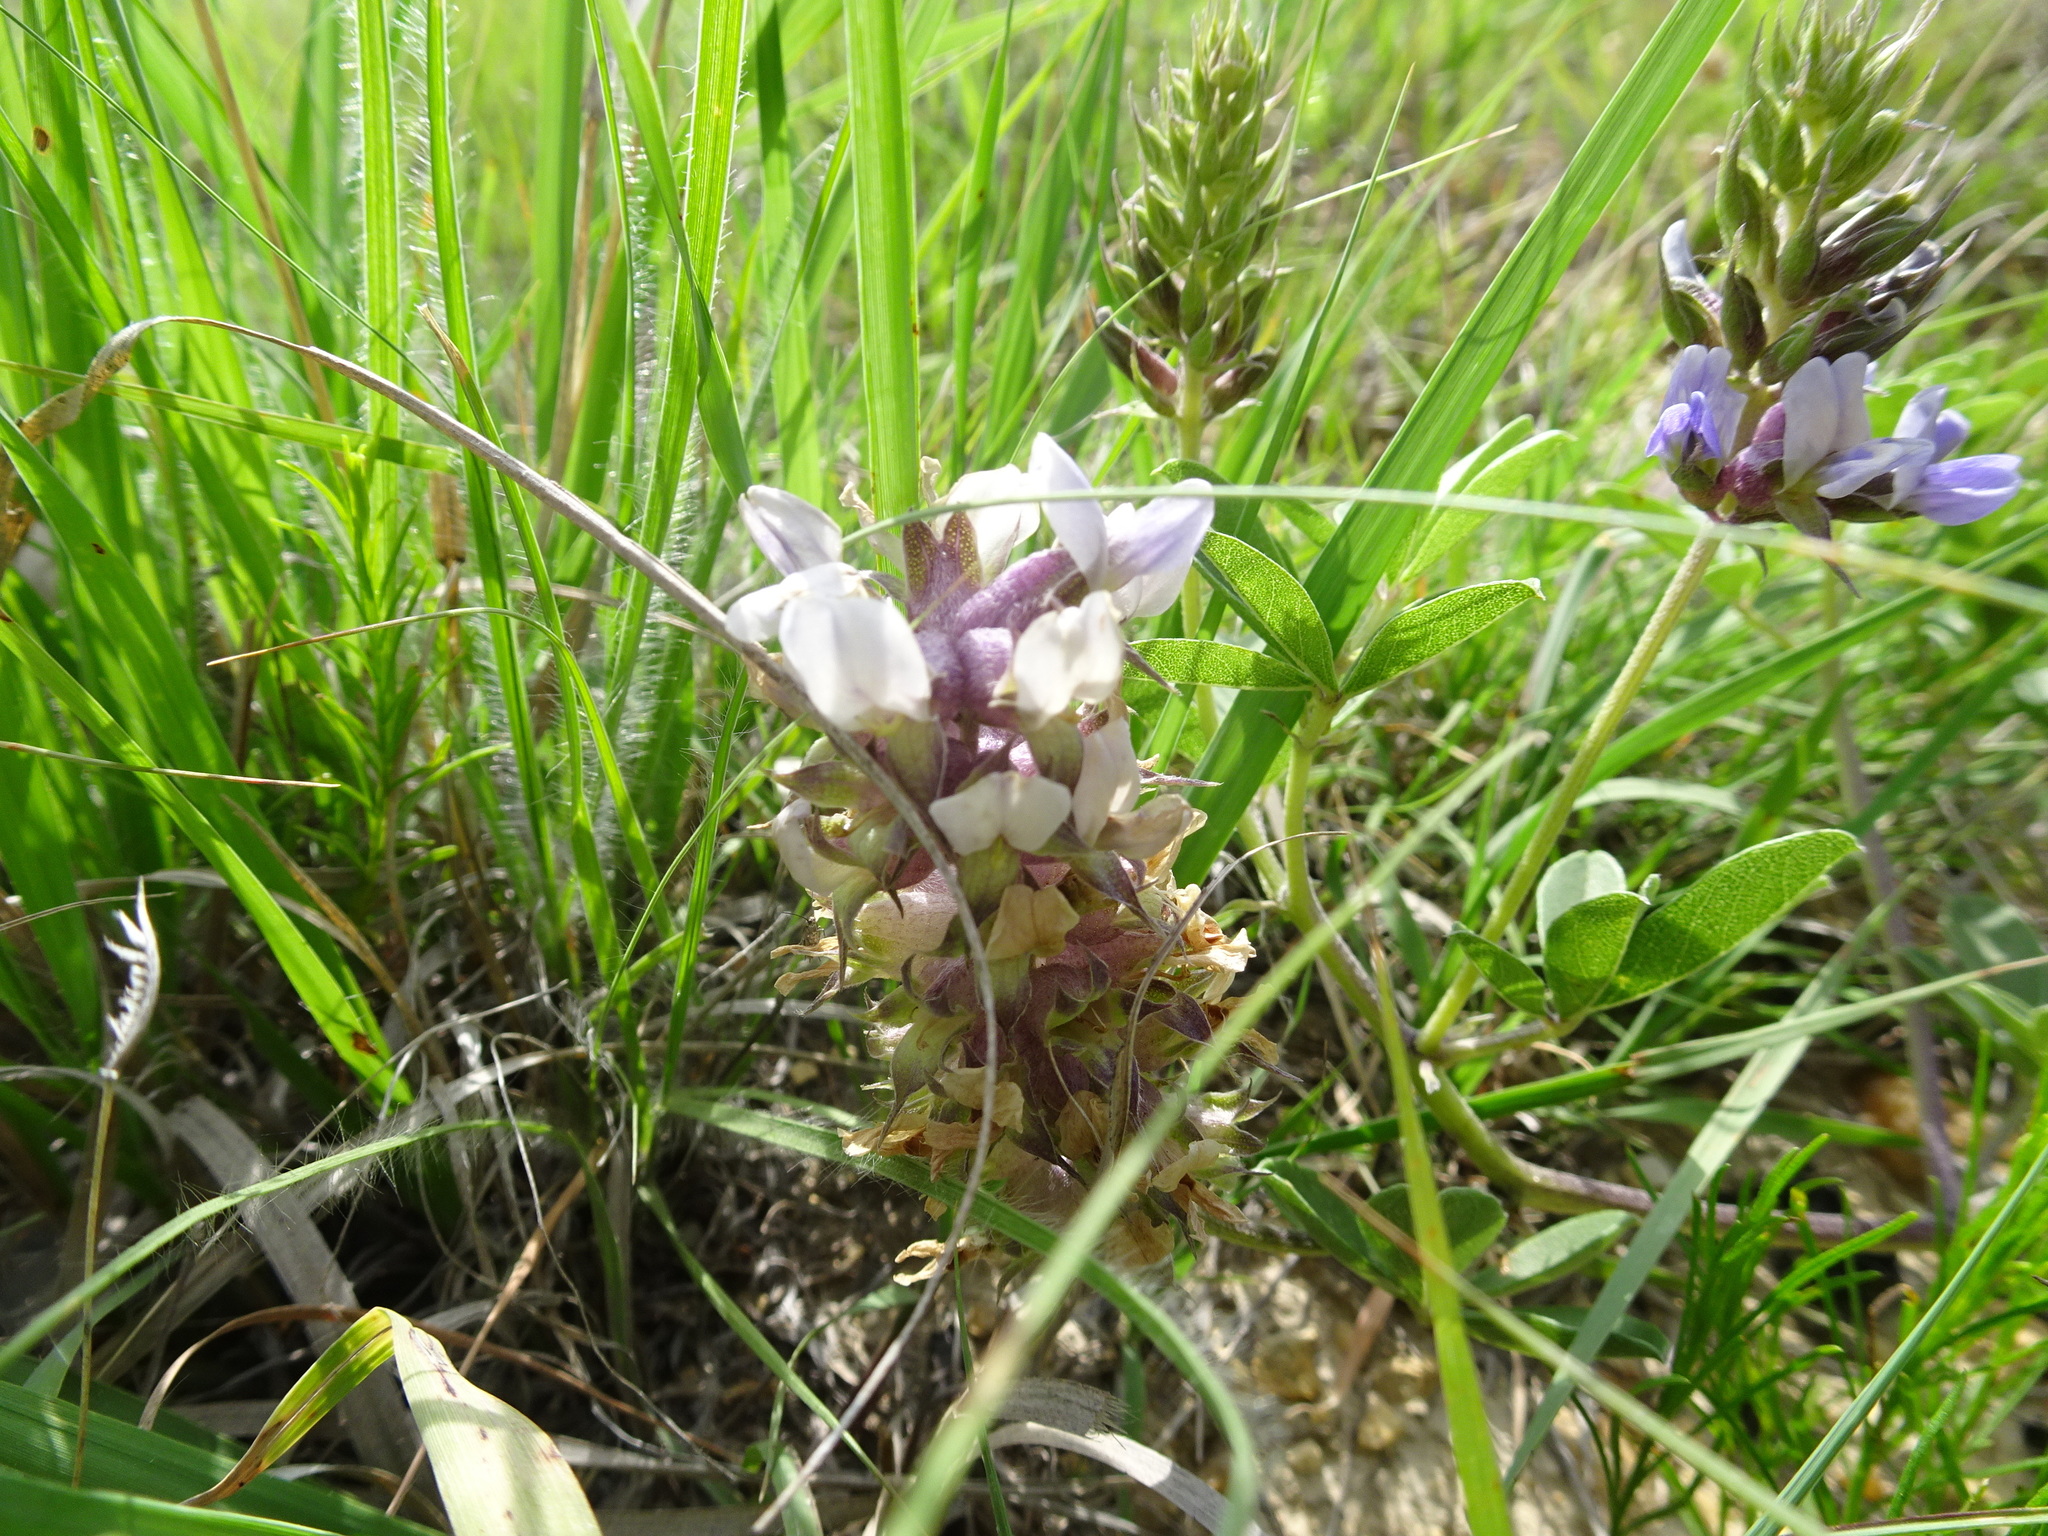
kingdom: Plantae
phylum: Tracheophyta
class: Magnoliopsida
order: Fabales
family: Fabaceae
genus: Pediomelum
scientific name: Pediomelum cuspidatum
